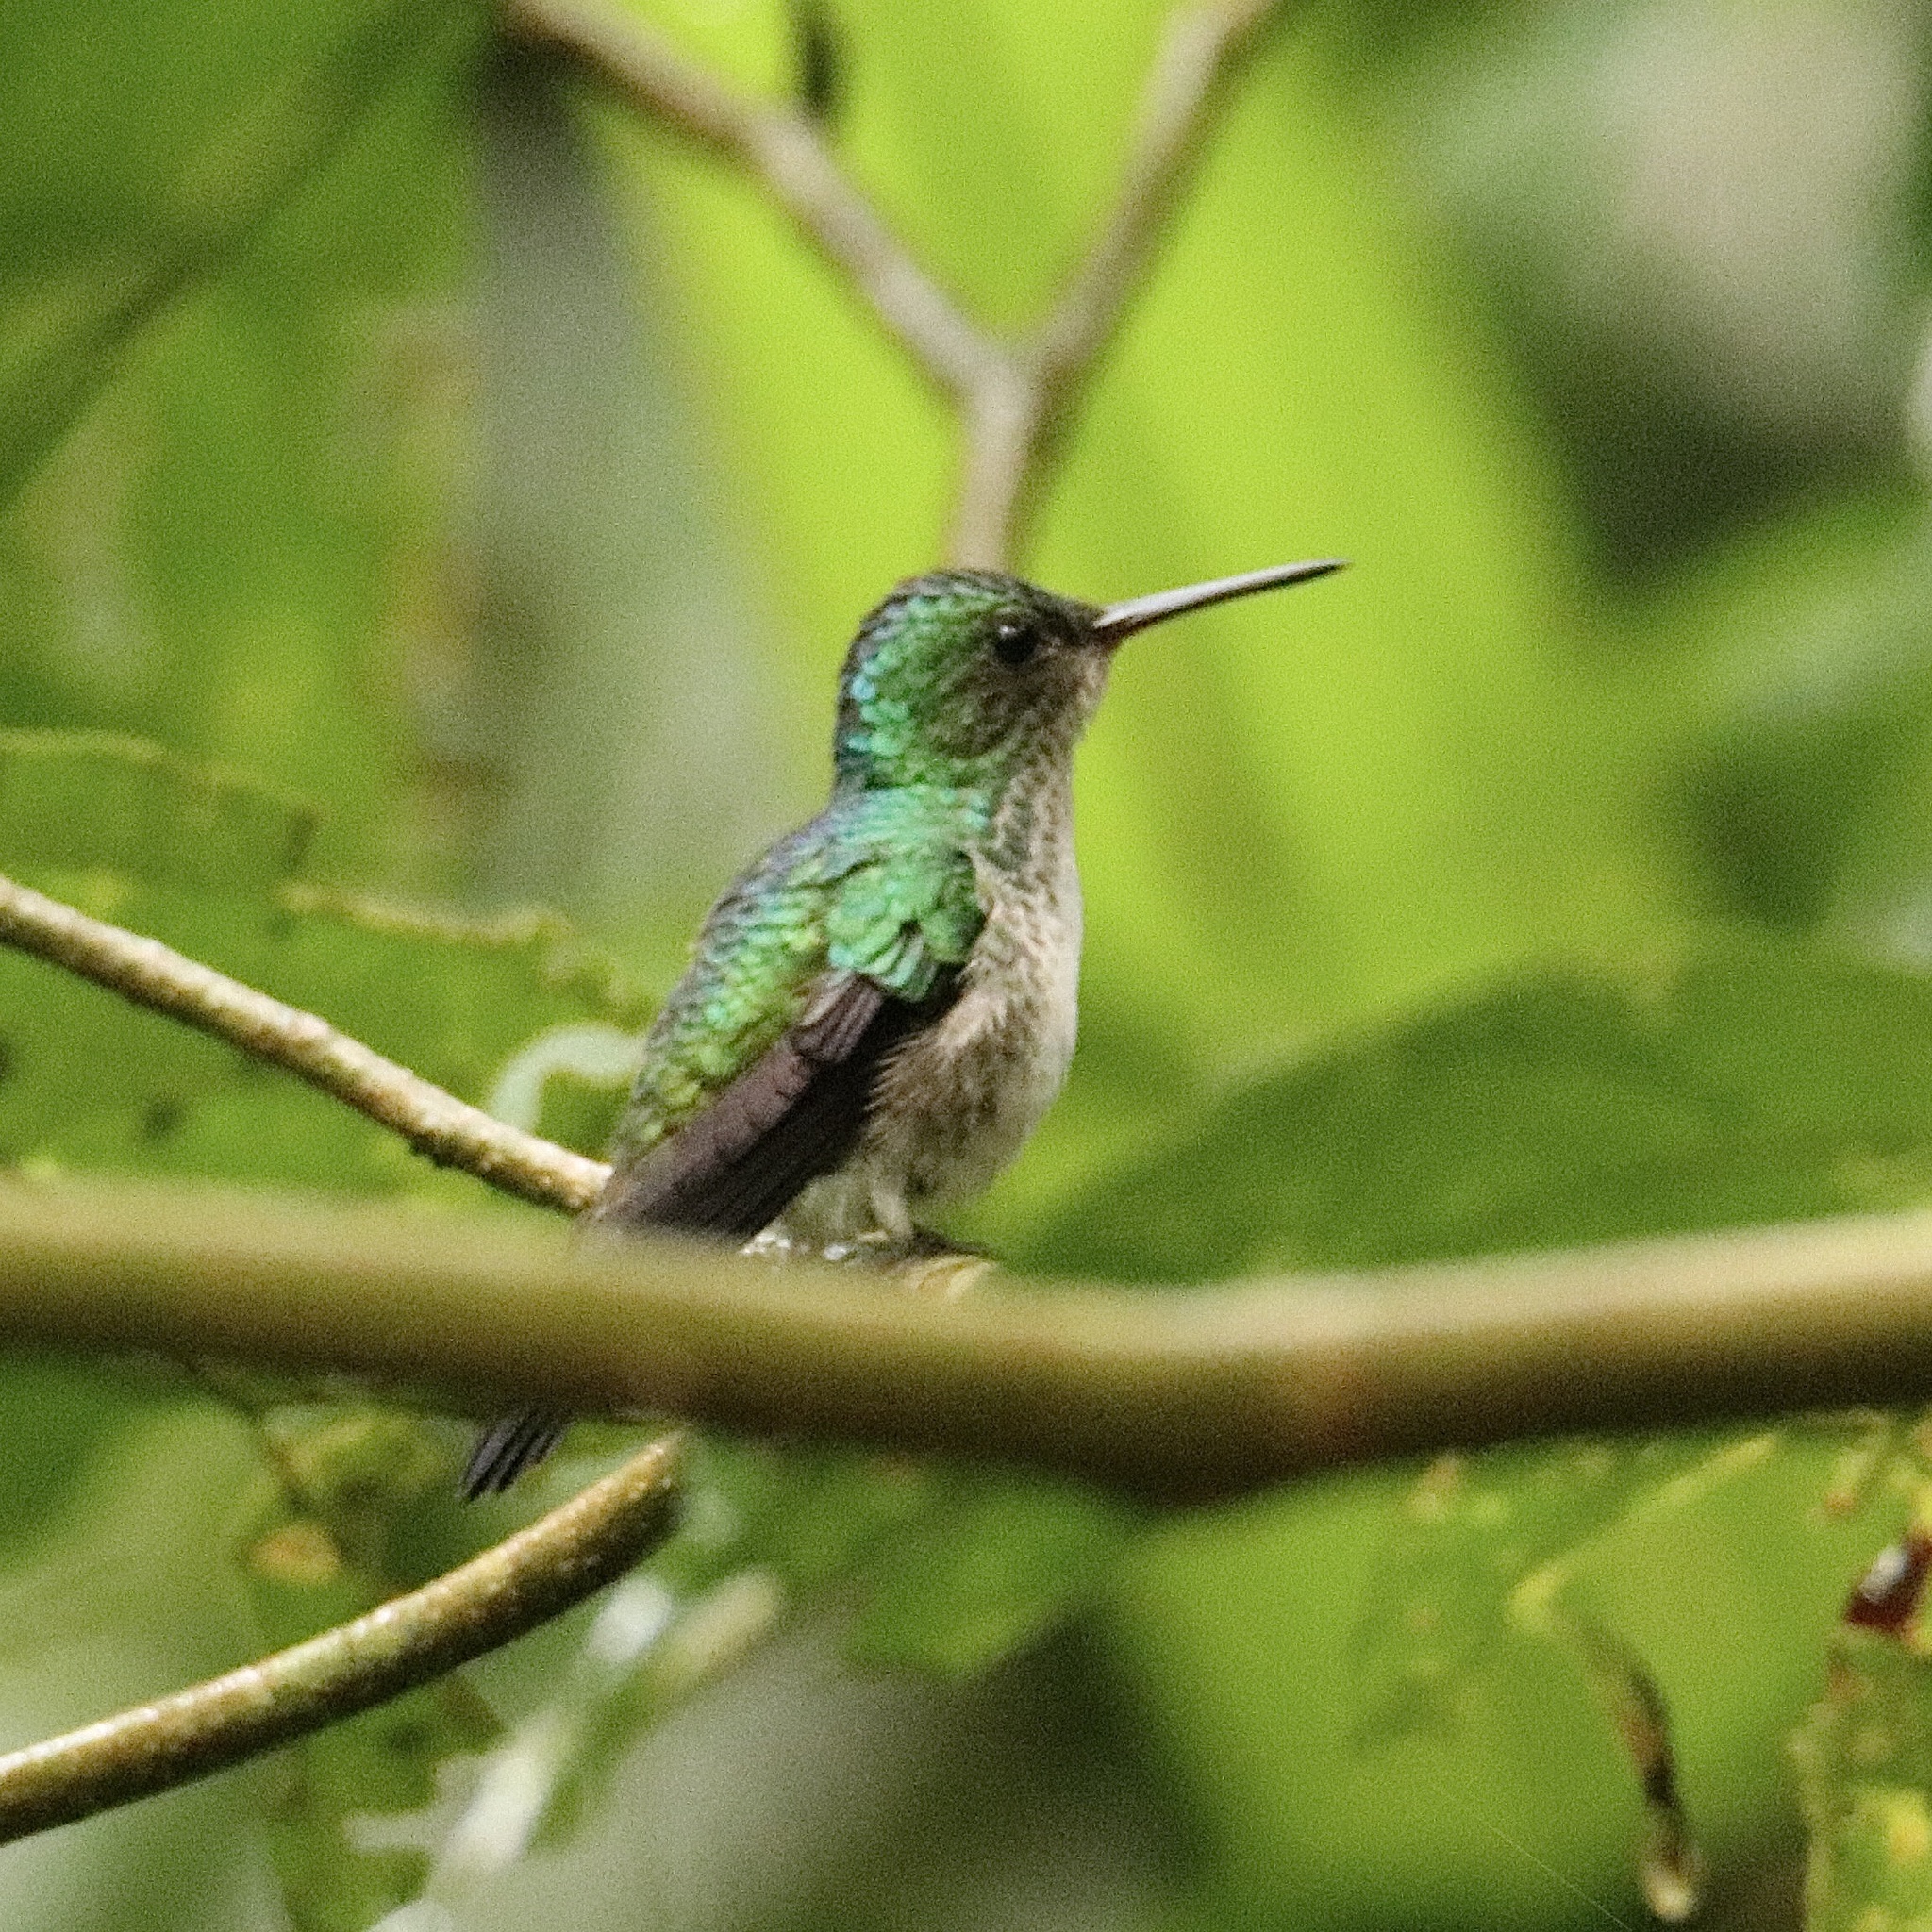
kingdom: Animalia
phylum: Chordata
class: Aves
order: Apodiformes
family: Trochilidae
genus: Polyerata
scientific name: Polyerata amabilis
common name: Blue-chested hummingbird
